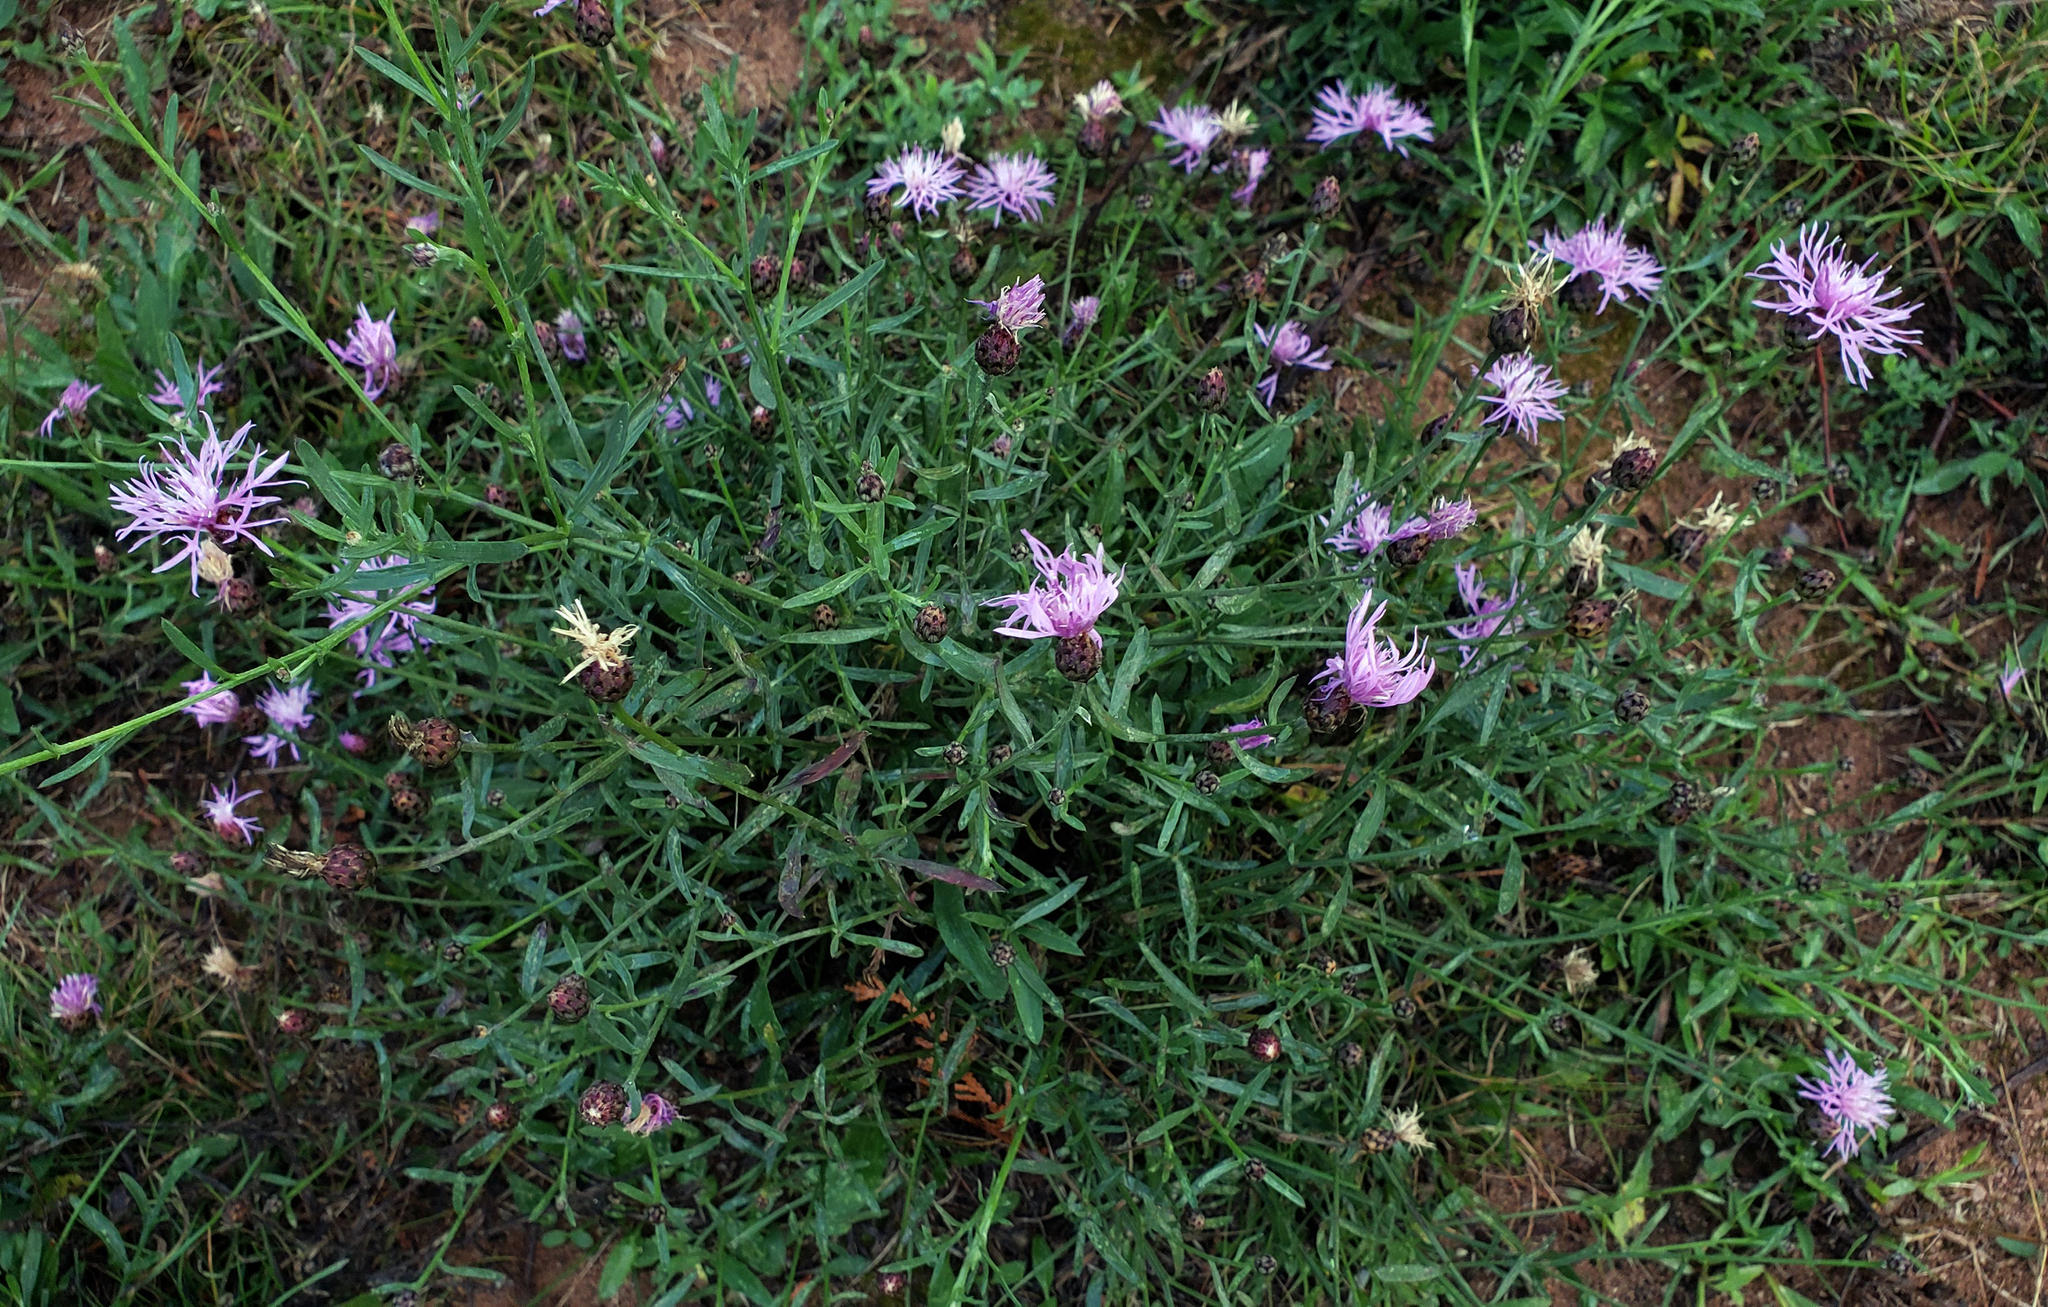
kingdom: Plantae
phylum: Tracheophyta
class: Magnoliopsida
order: Asterales
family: Asteraceae
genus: Centaurea
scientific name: Centaurea stoebe
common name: Spotted knapweed
